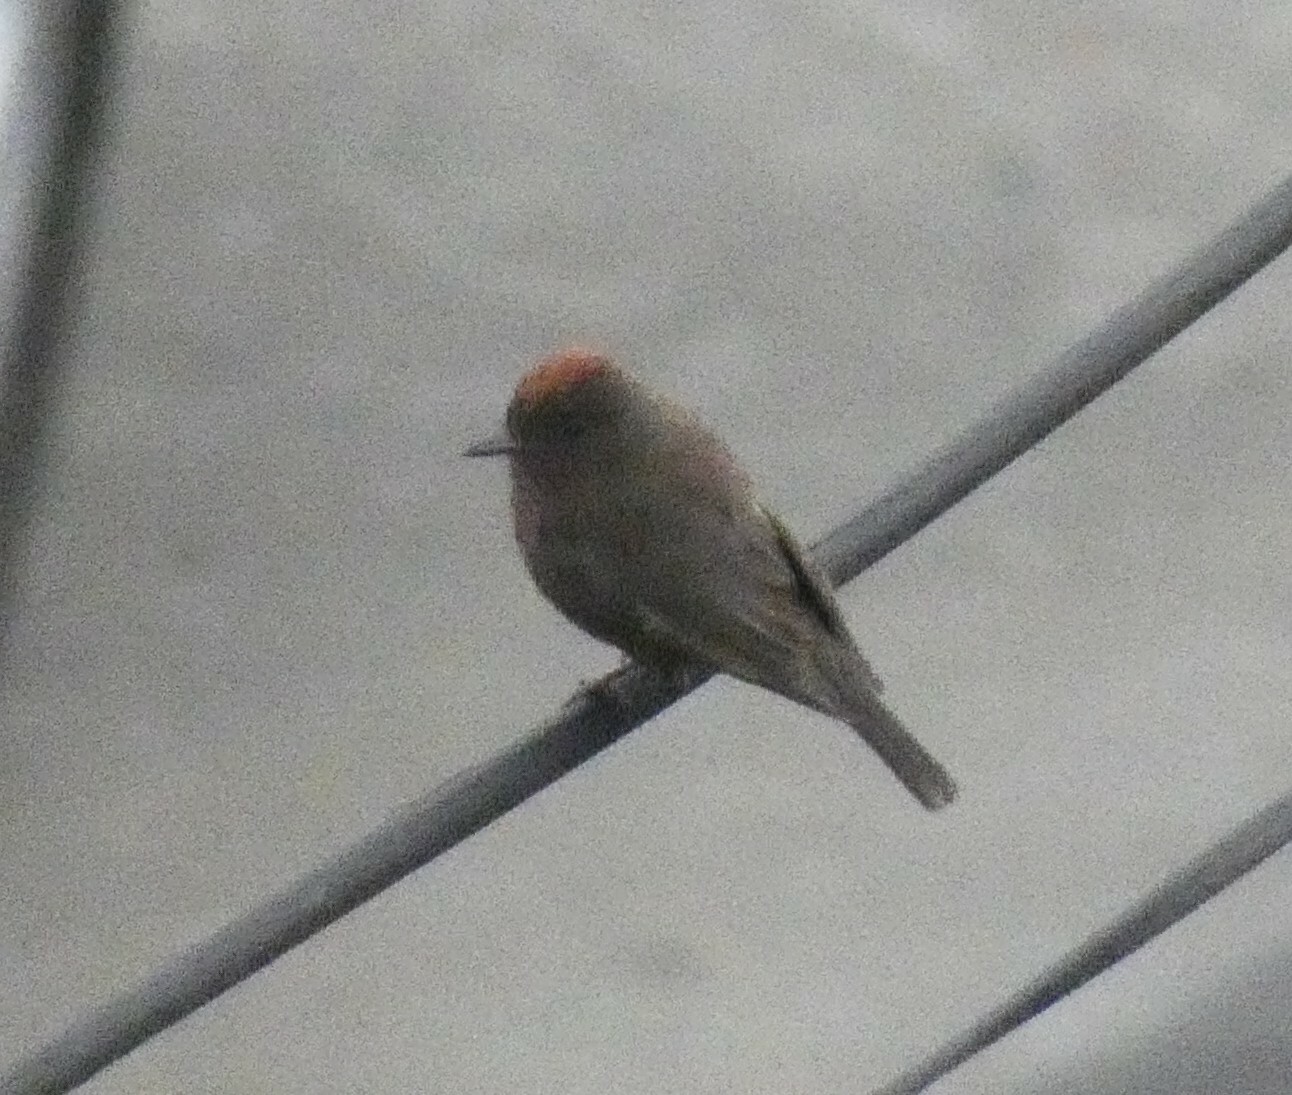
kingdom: Animalia
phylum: Chordata
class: Aves
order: Passeriformes
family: Tyrannidae
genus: Pyrocephalus
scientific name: Pyrocephalus rubinus
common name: Vermilion flycatcher
